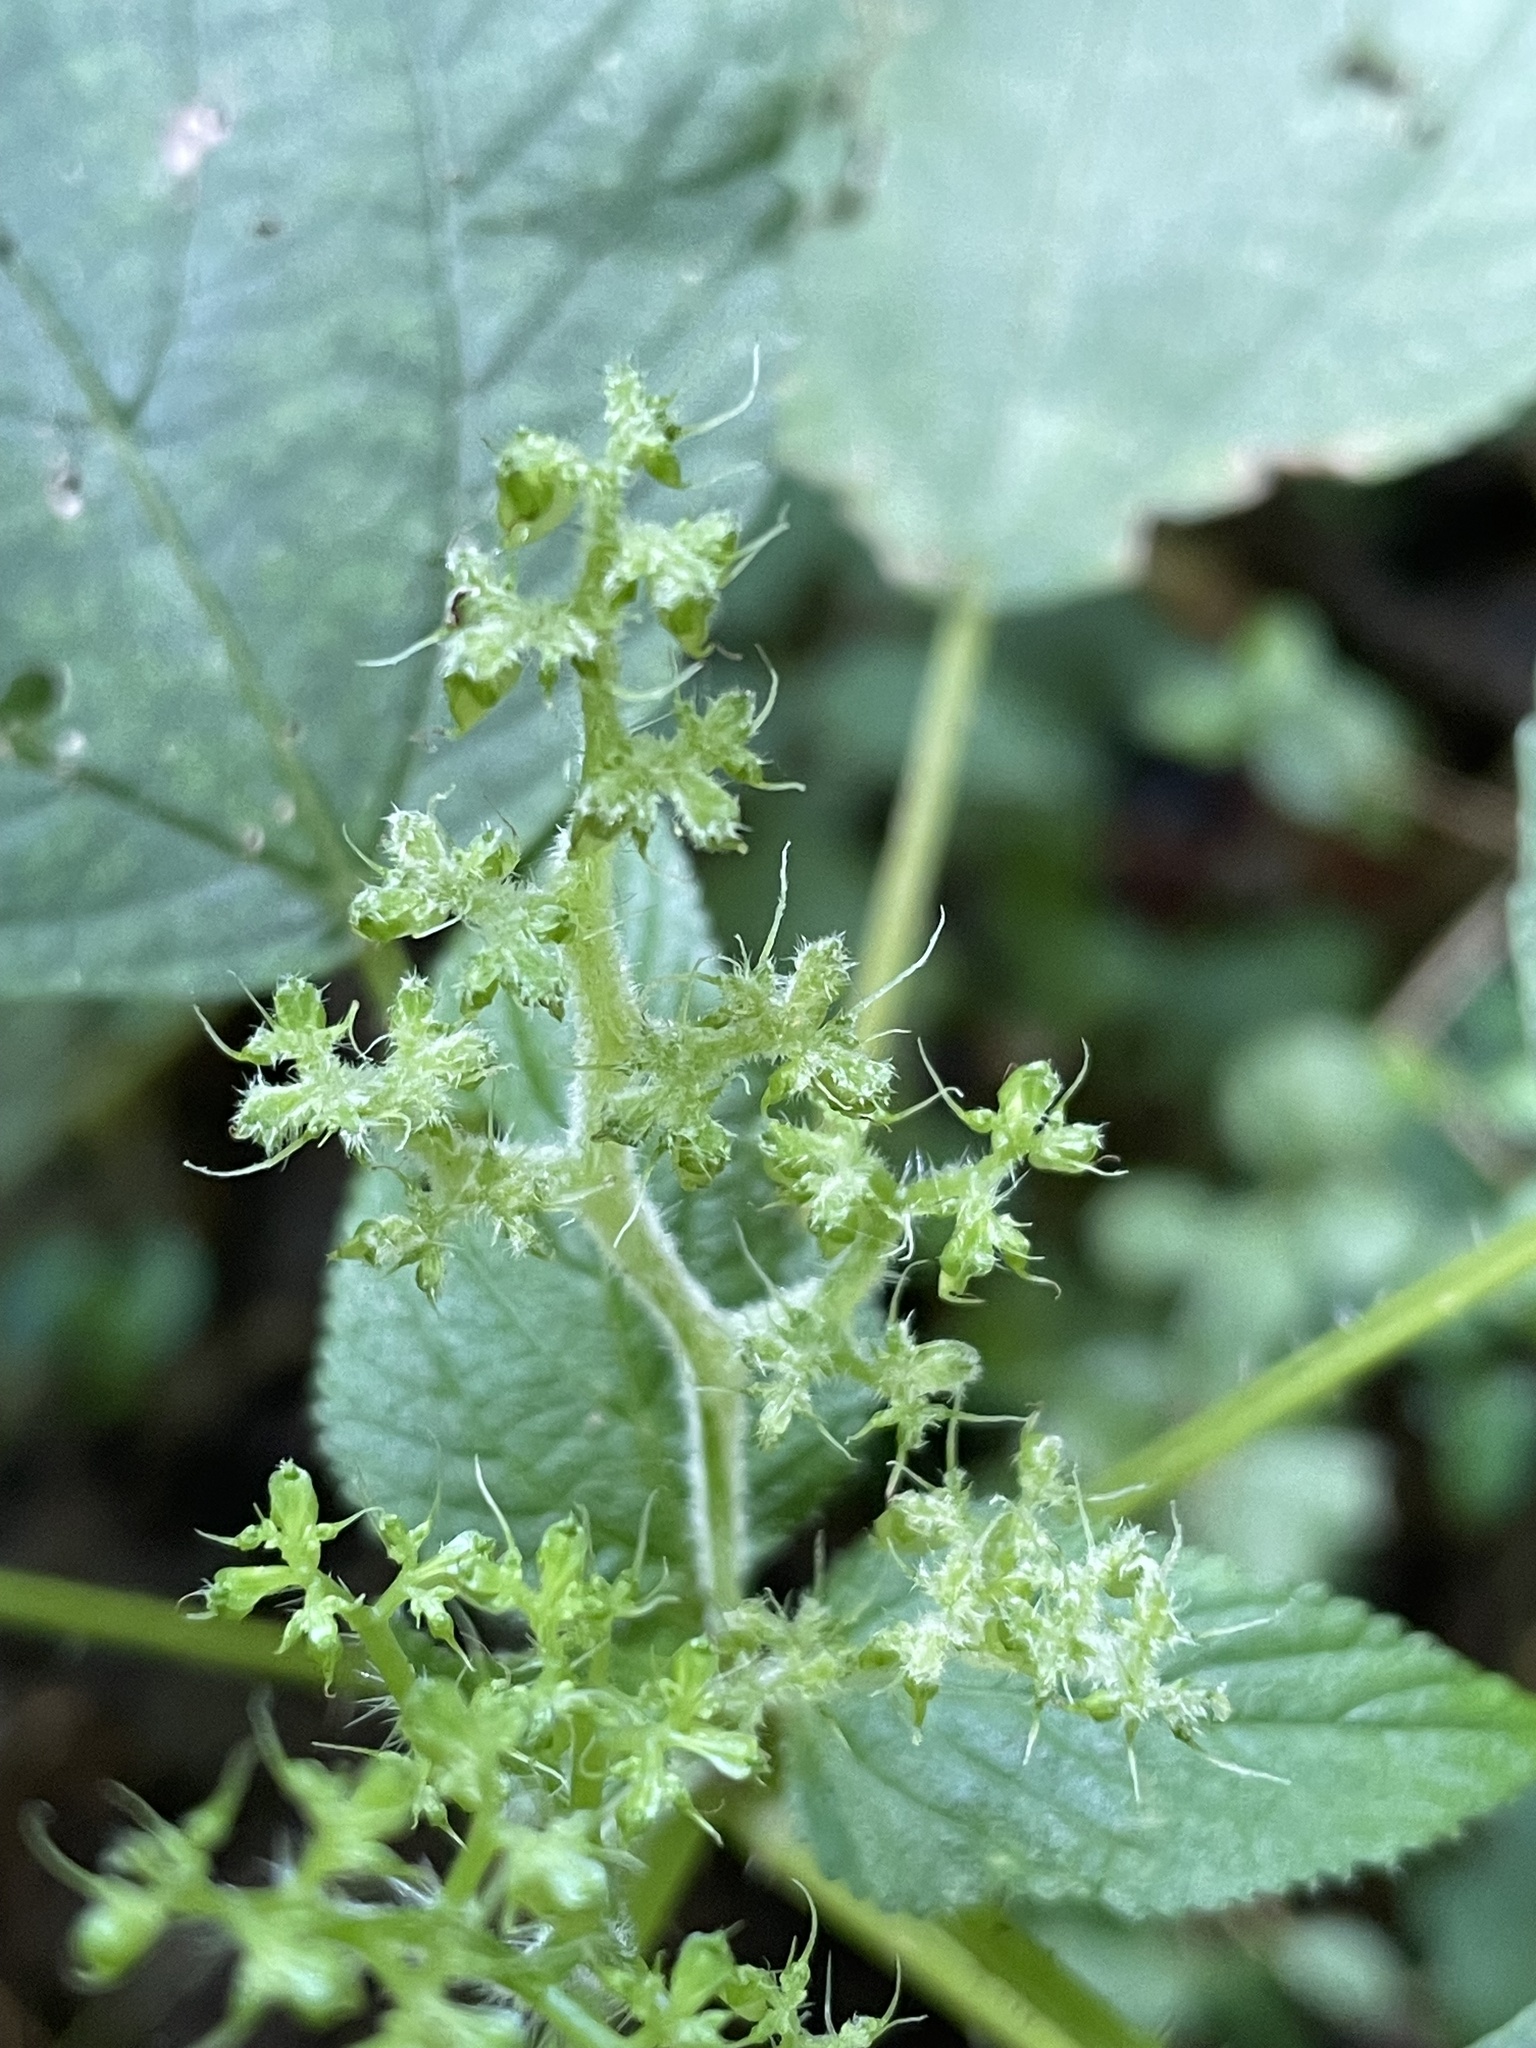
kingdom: Plantae
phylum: Tracheophyta
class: Magnoliopsida
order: Rosales
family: Urticaceae
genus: Laportea
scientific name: Laportea canadensis
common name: Canada nettle
